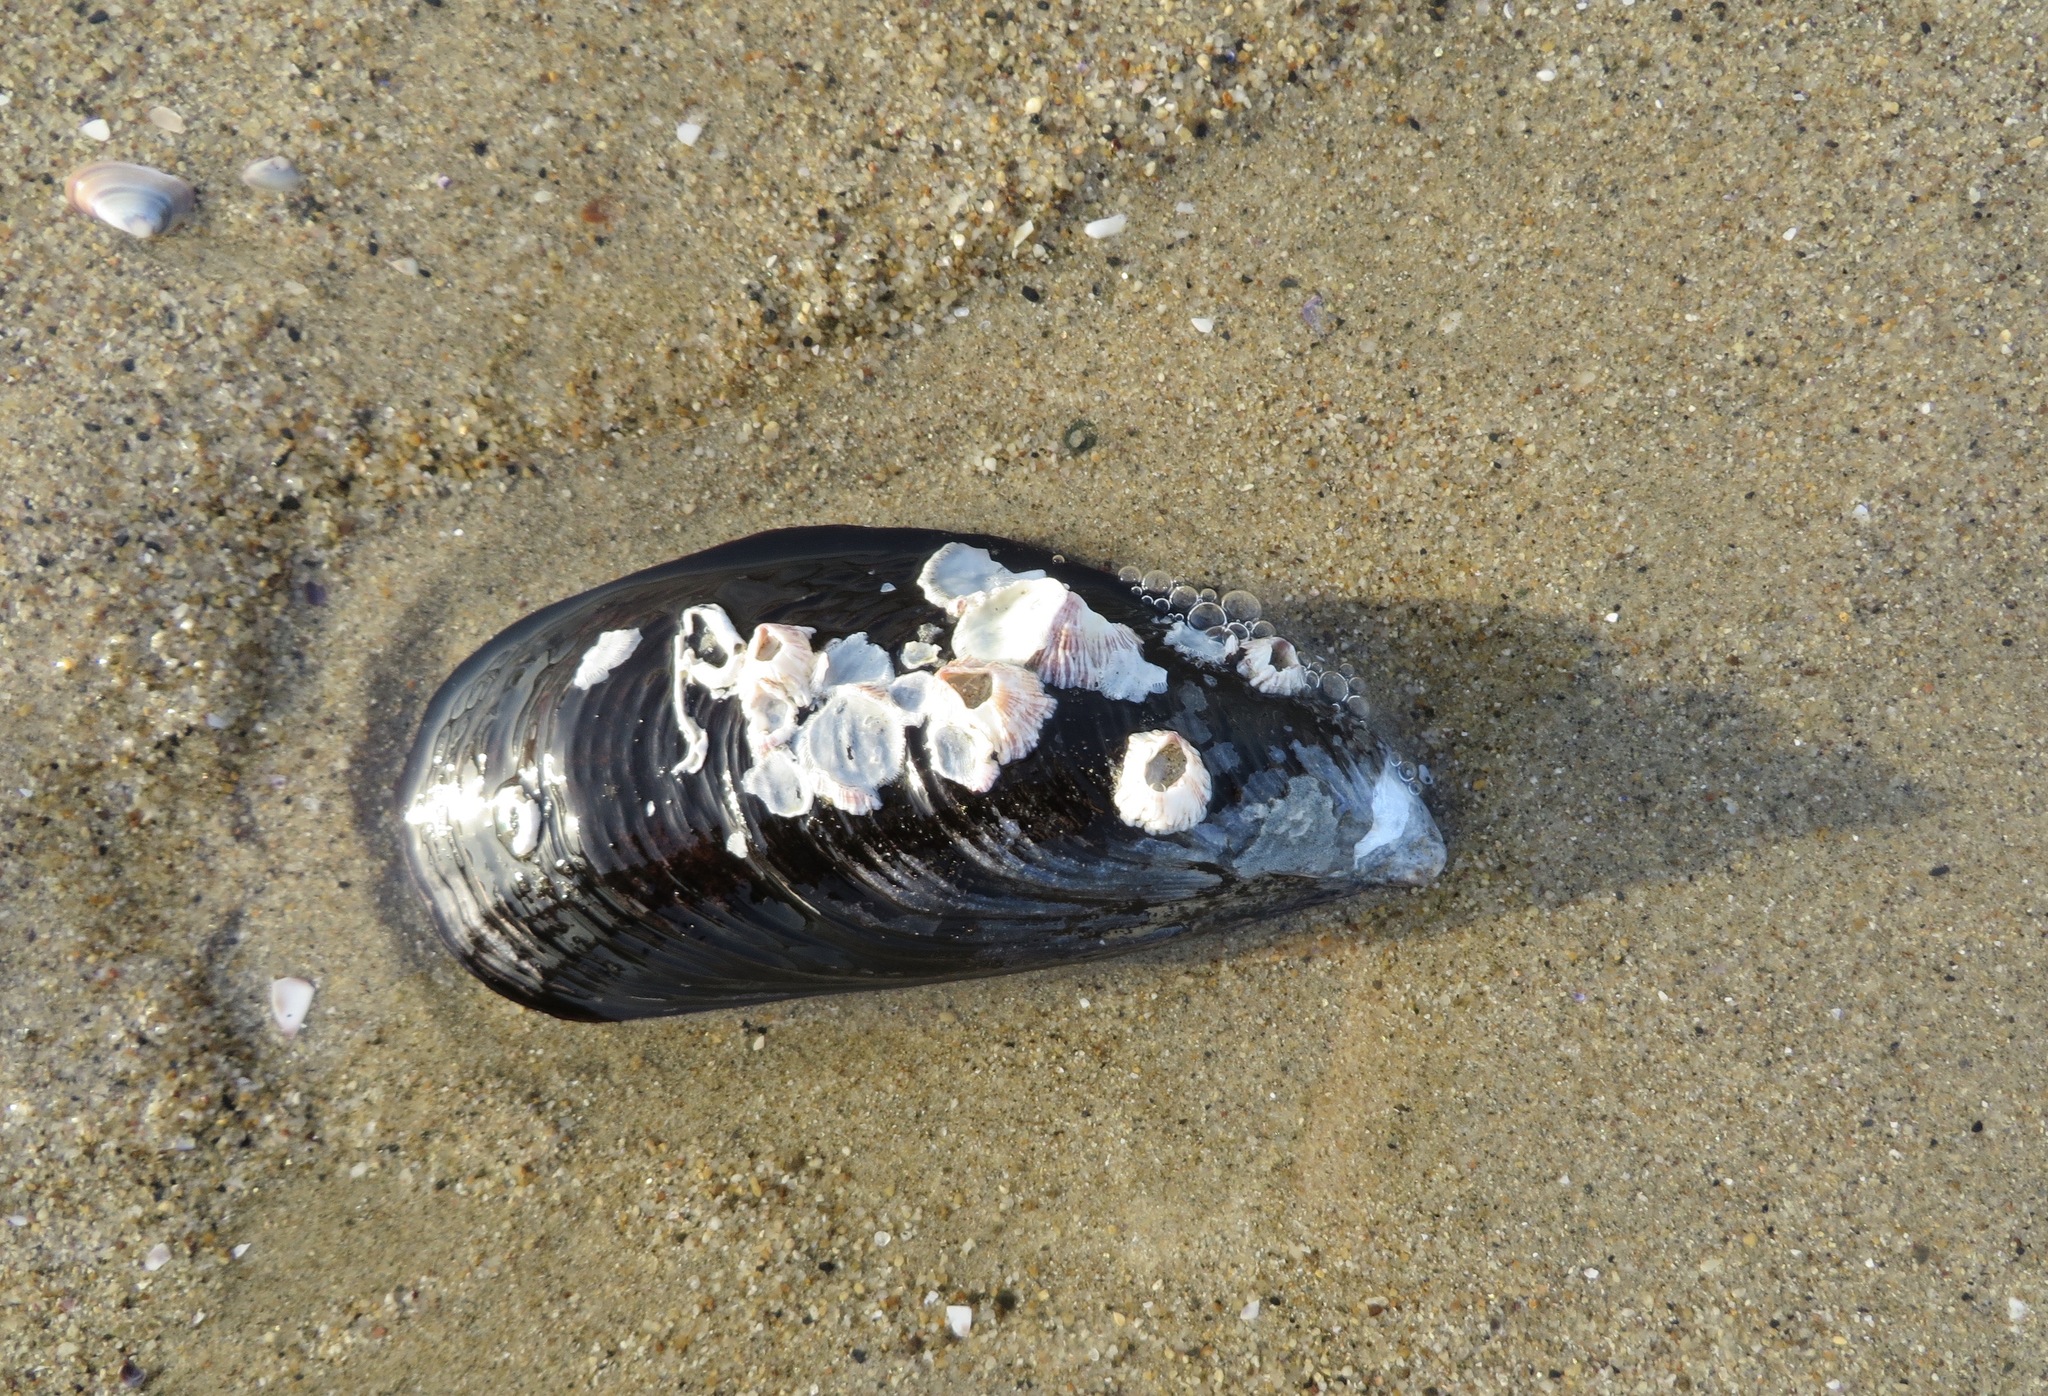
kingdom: Animalia
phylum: Arthropoda
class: Maxillopoda
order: Sessilia
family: Balanidae
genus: Balanus
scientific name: Balanus trigonus
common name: Triangle barnacle
